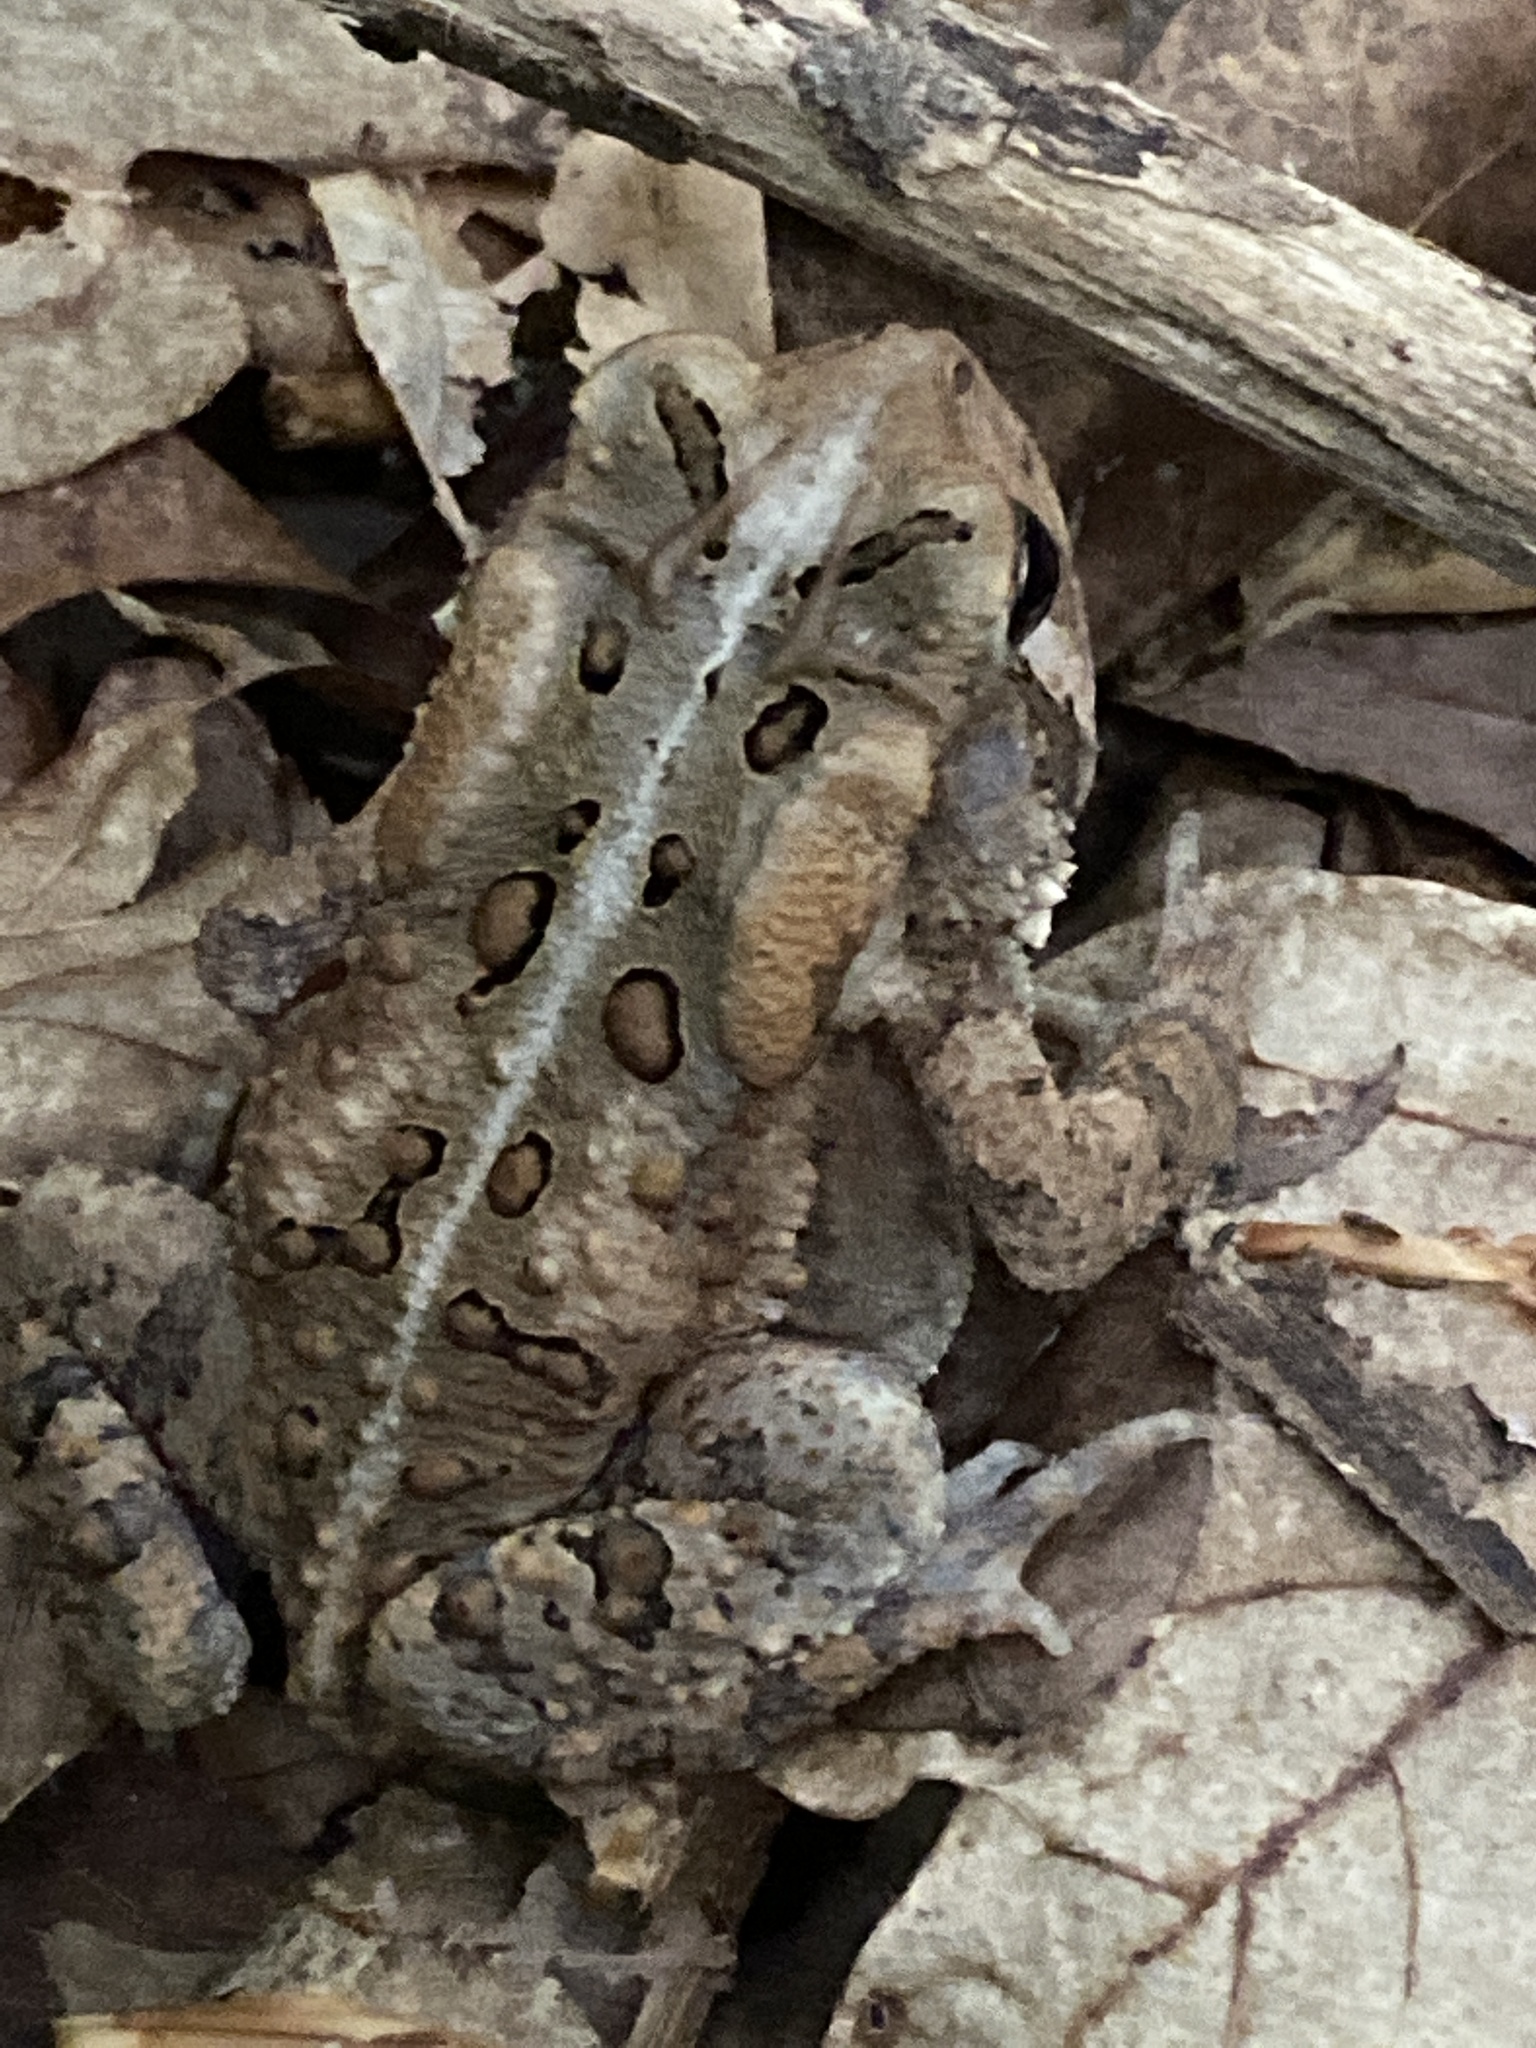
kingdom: Animalia
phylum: Chordata
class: Amphibia
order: Anura
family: Bufonidae
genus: Anaxyrus
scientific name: Anaxyrus americanus
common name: American toad
